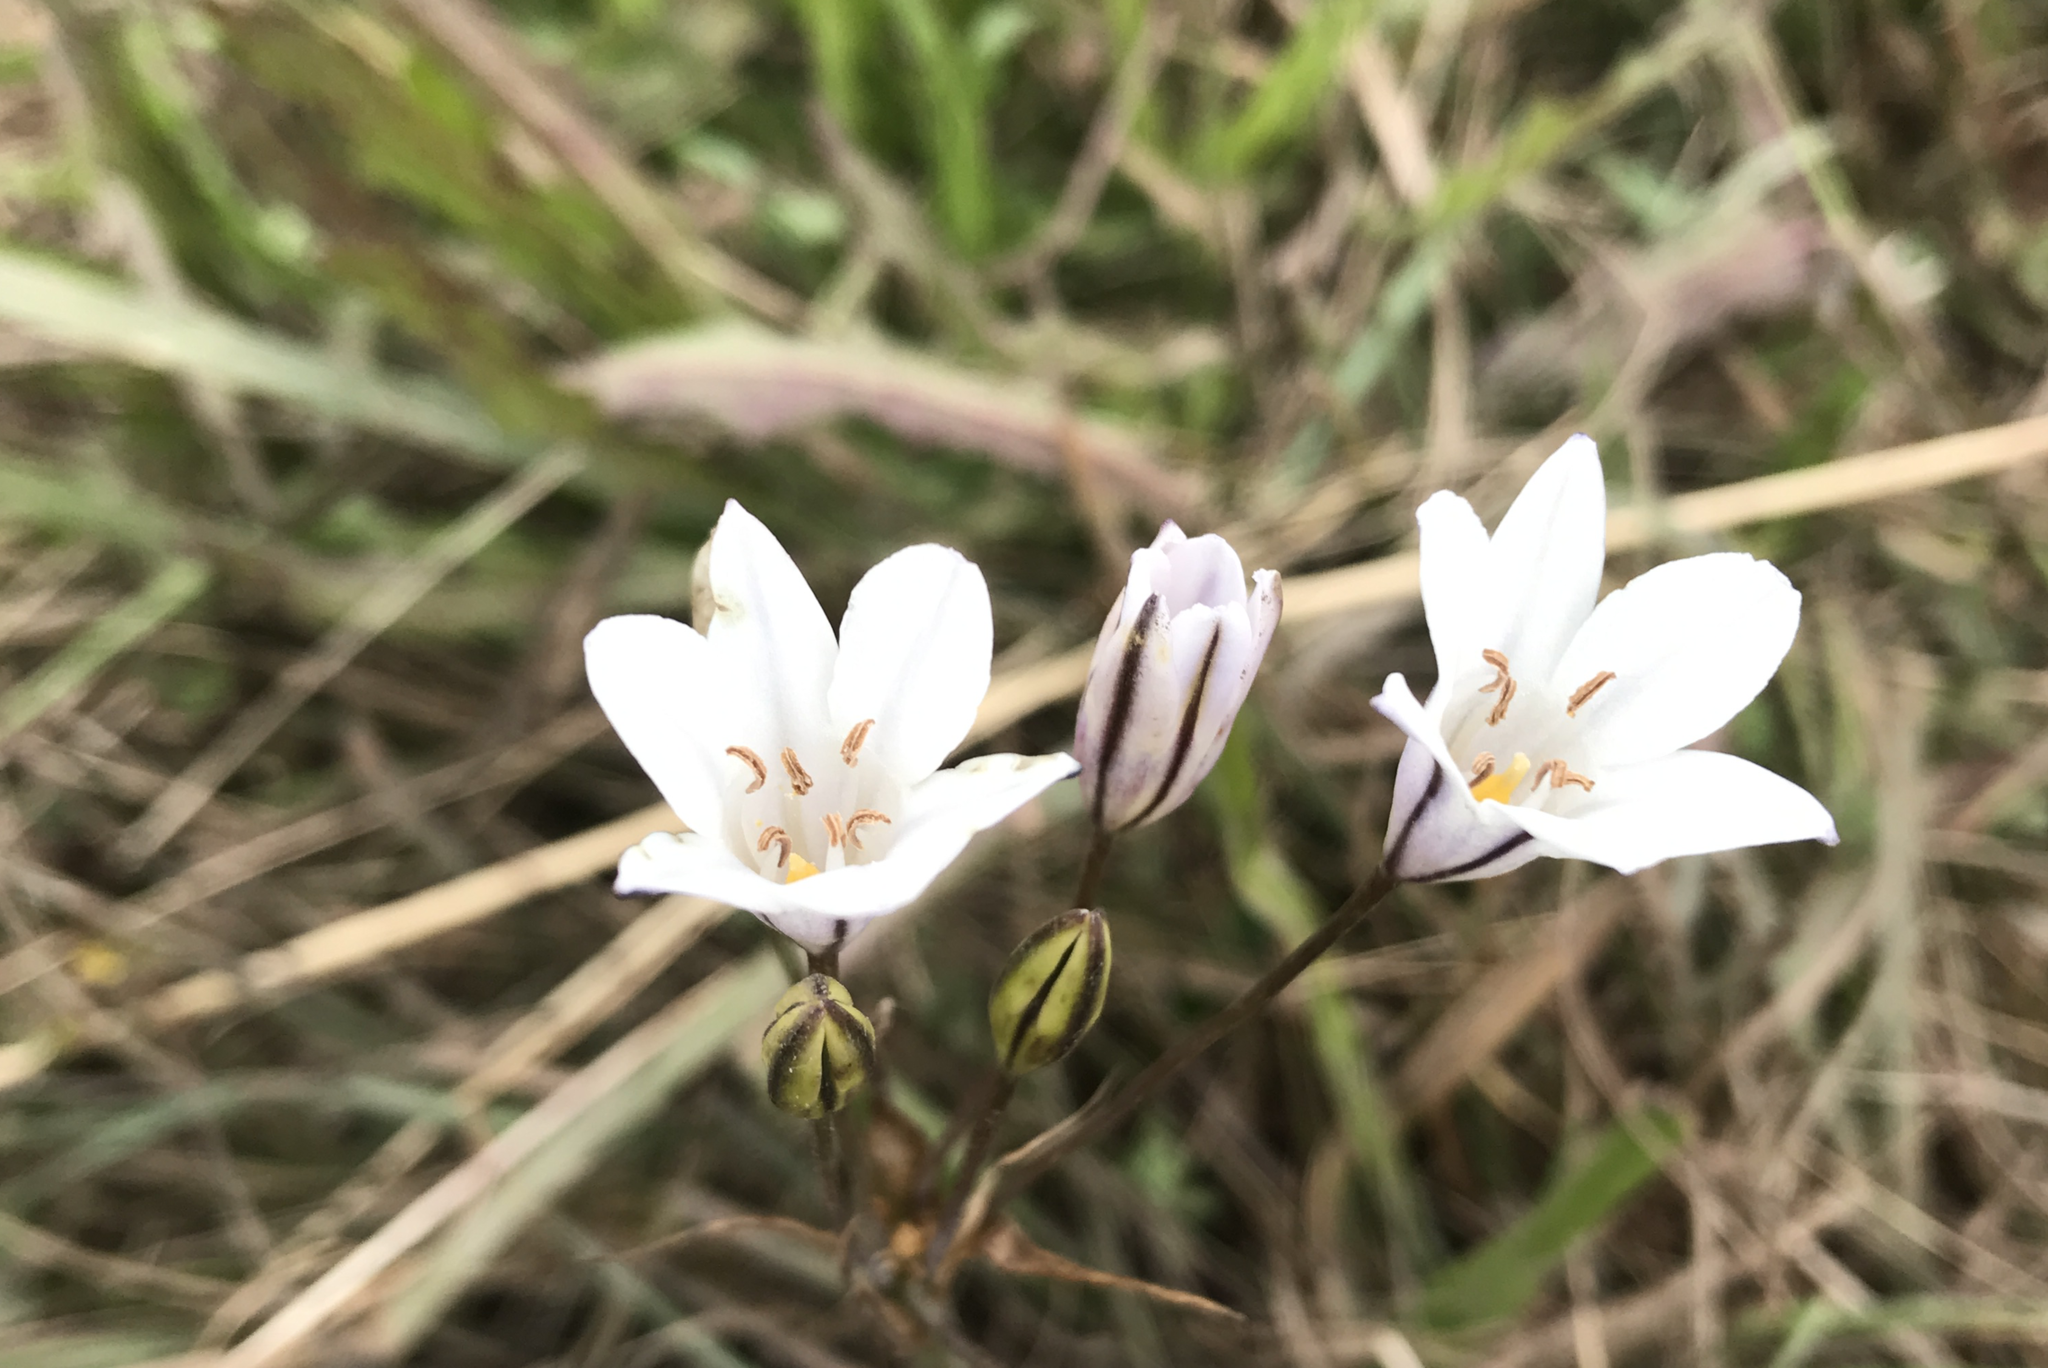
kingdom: Plantae
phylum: Tracheophyta
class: Liliopsida
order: Asparagales
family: Asparagaceae
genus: Triteleia
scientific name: Triteleia peduncularis
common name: Long-ray brodiaea
